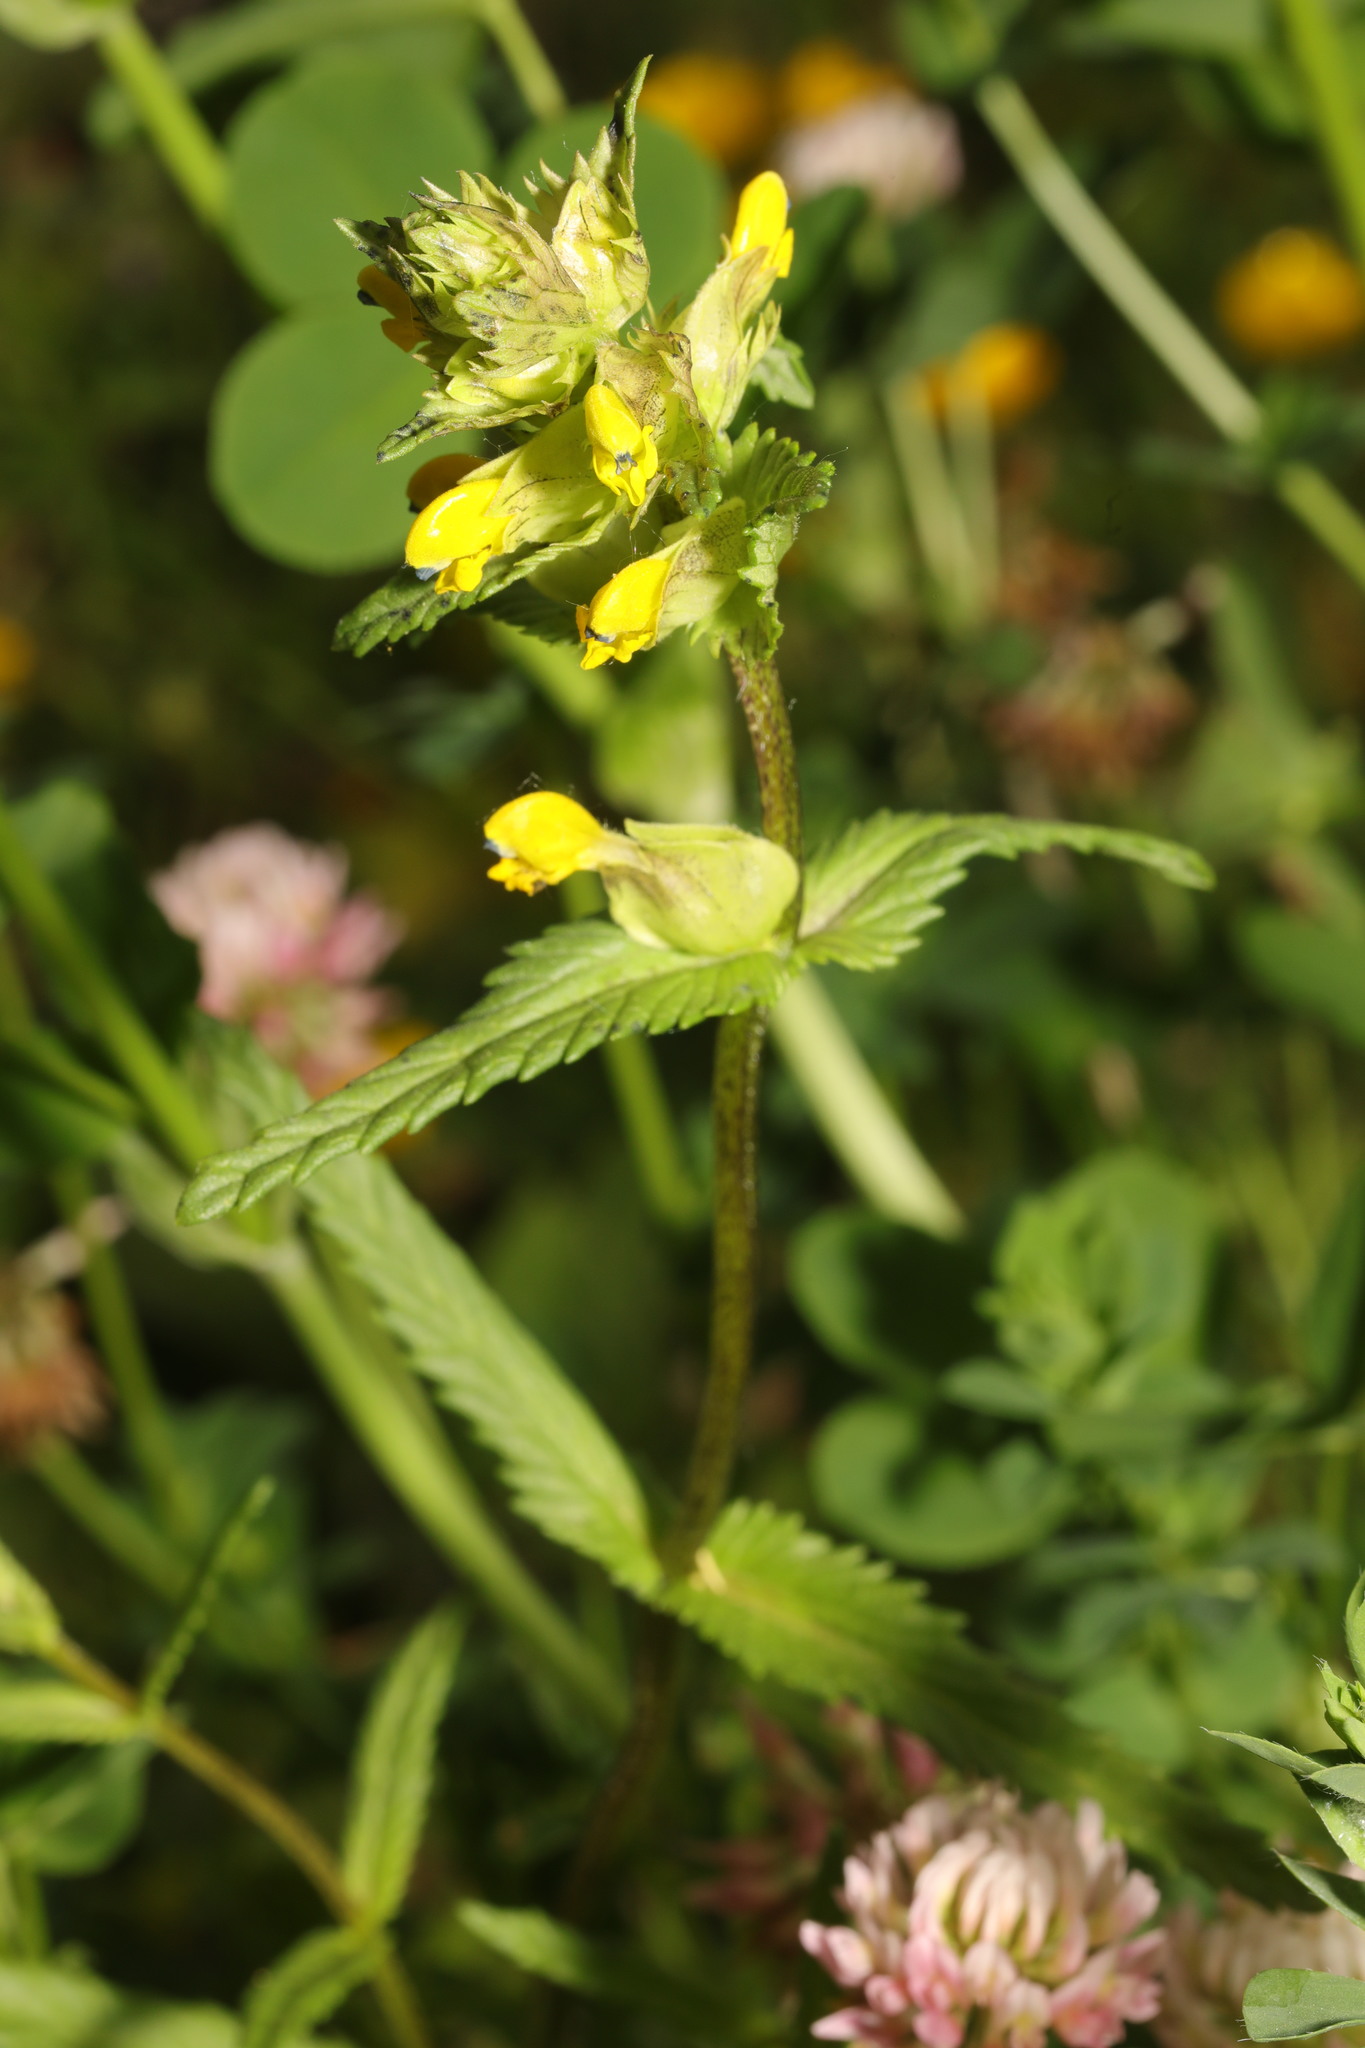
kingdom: Plantae
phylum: Tracheophyta
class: Magnoliopsida
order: Lamiales
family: Orobanchaceae
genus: Rhinanthus
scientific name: Rhinanthus minor
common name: Yellow-rattle
